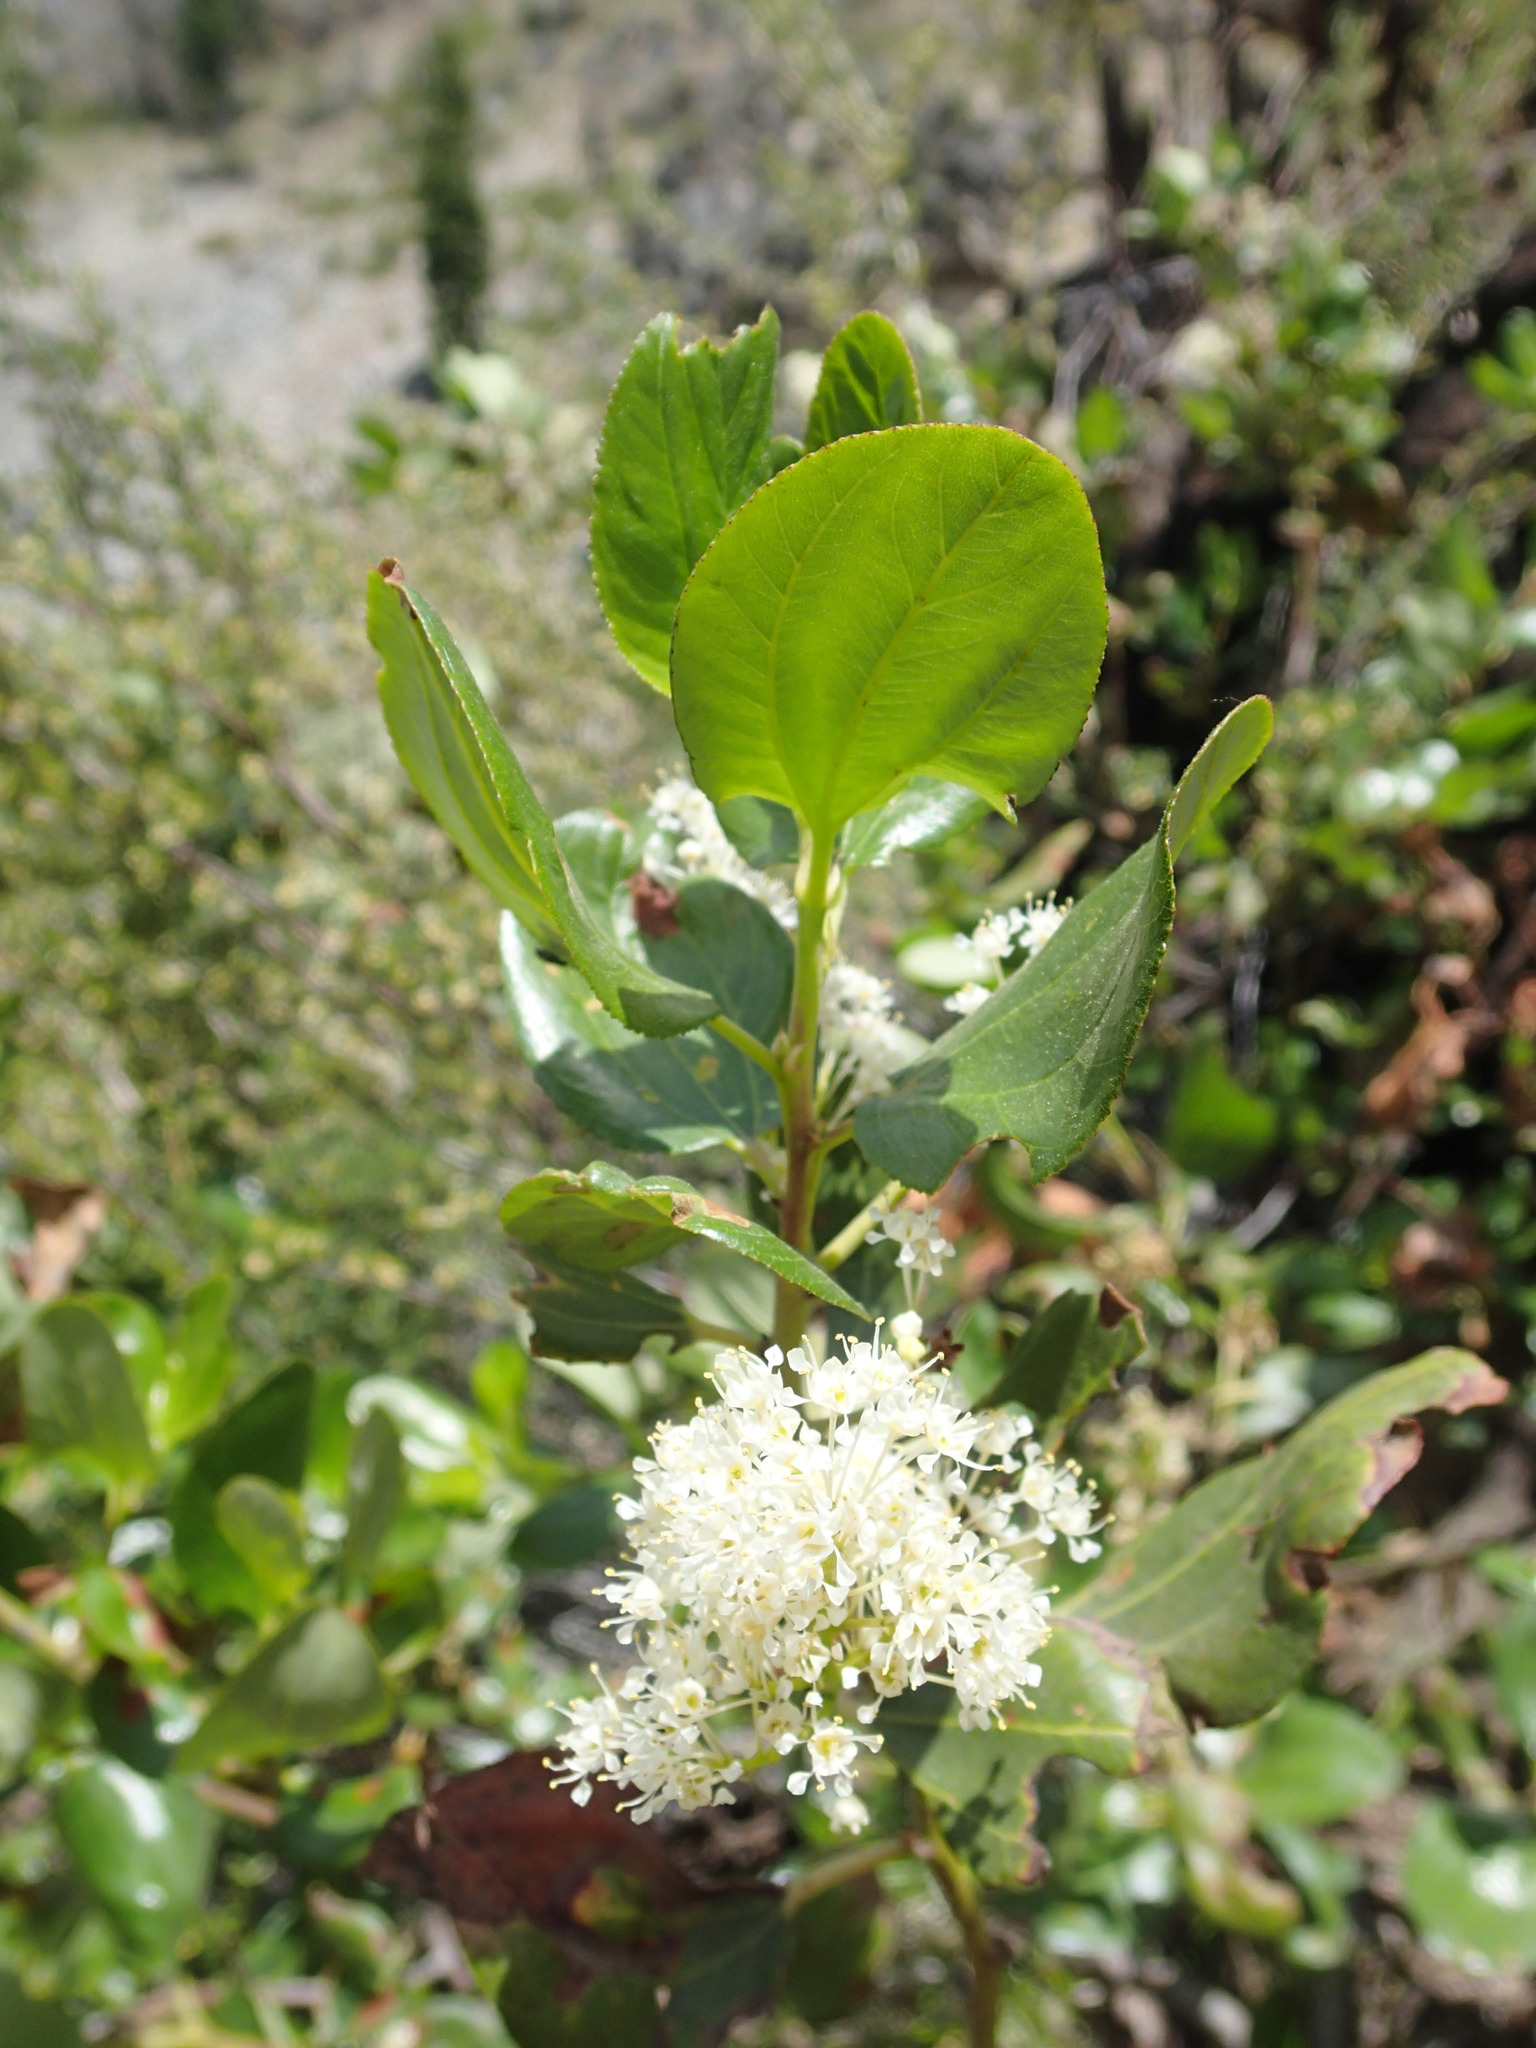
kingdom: Plantae
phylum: Tracheophyta
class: Magnoliopsida
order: Rosales
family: Rhamnaceae
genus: Ceanothus
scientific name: Ceanothus velutinus
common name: Snowbrush
